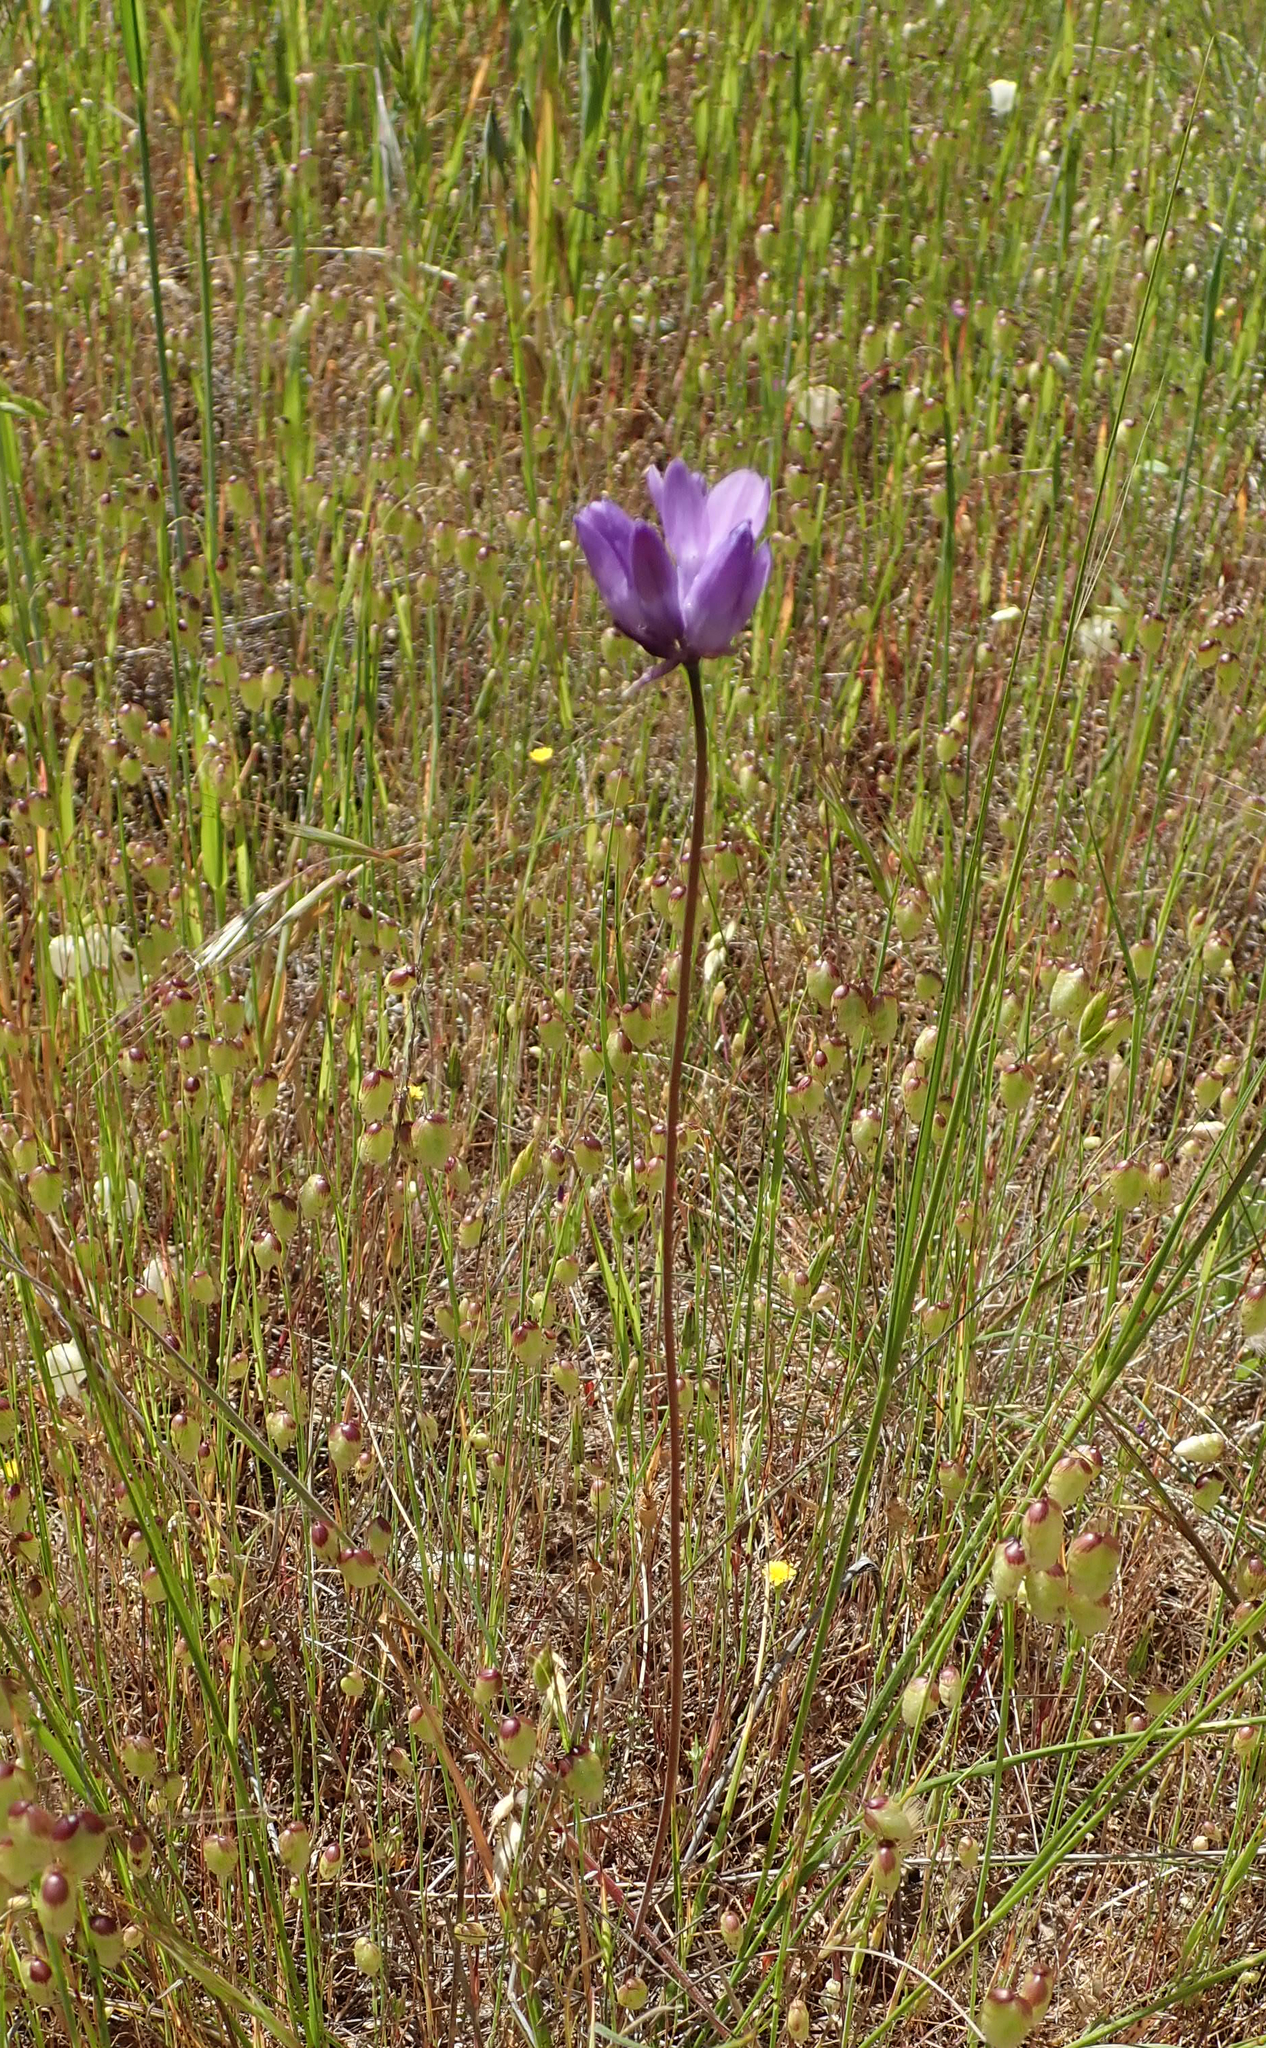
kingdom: Plantae
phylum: Tracheophyta
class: Liliopsida
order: Asparagales
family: Asparagaceae
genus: Dipterostemon
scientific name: Dipterostemon capitatus
